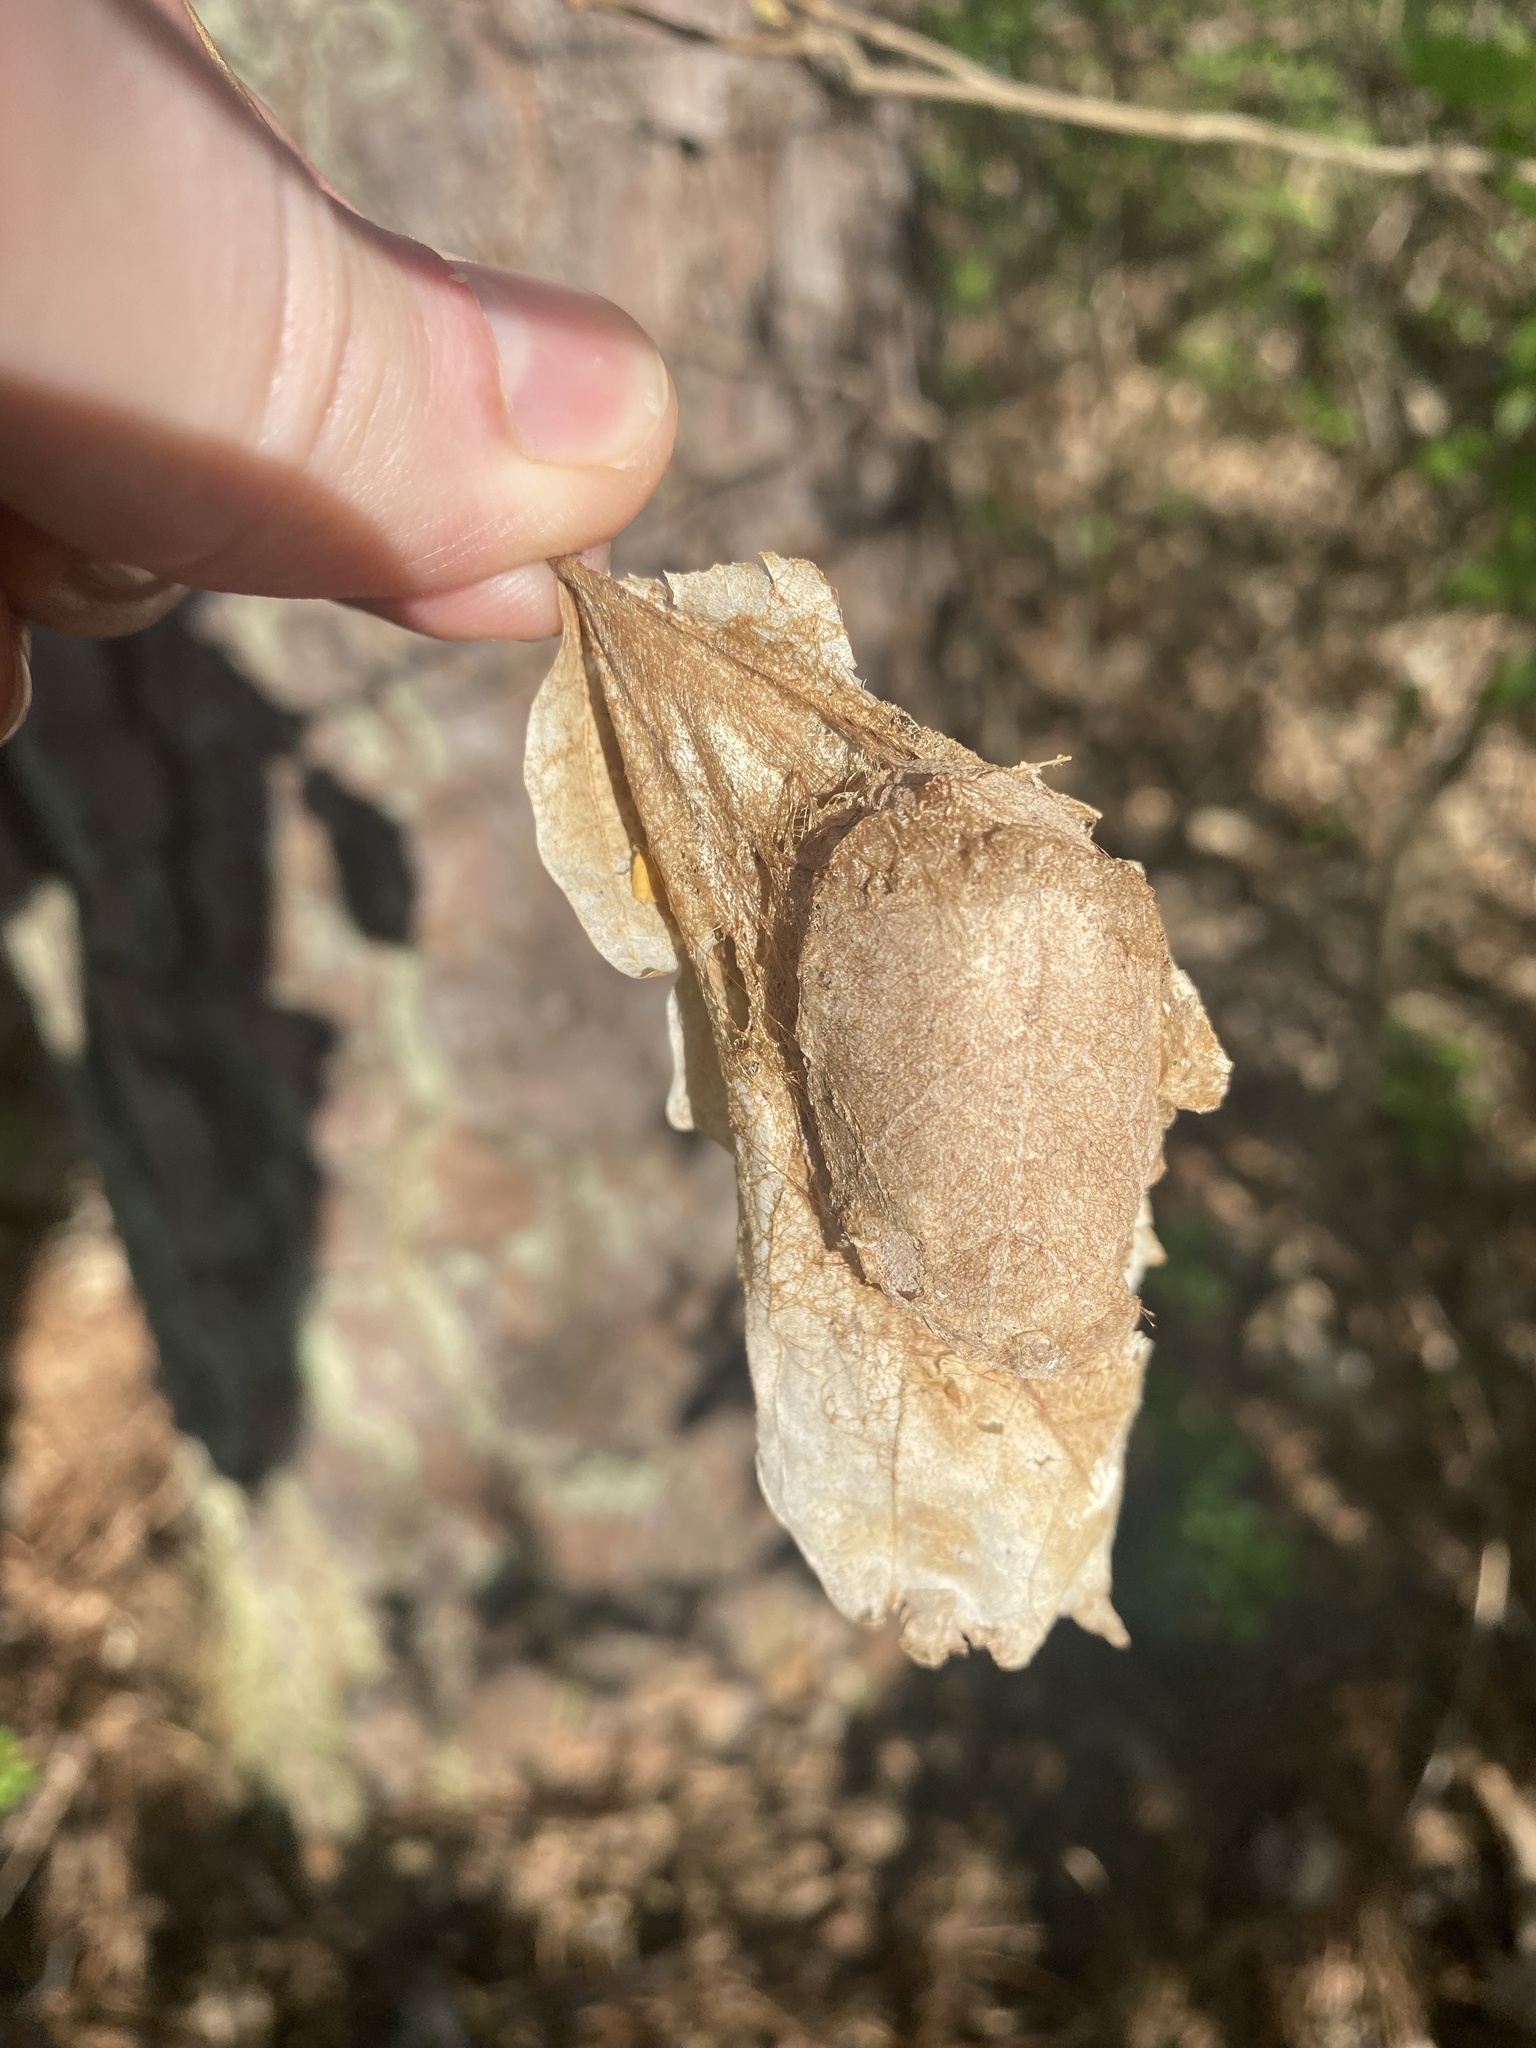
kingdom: Animalia
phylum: Arthropoda
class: Insecta
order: Lepidoptera
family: Saturniidae
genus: Antheraea
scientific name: Antheraea polyphemus
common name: Polyphemus moth
